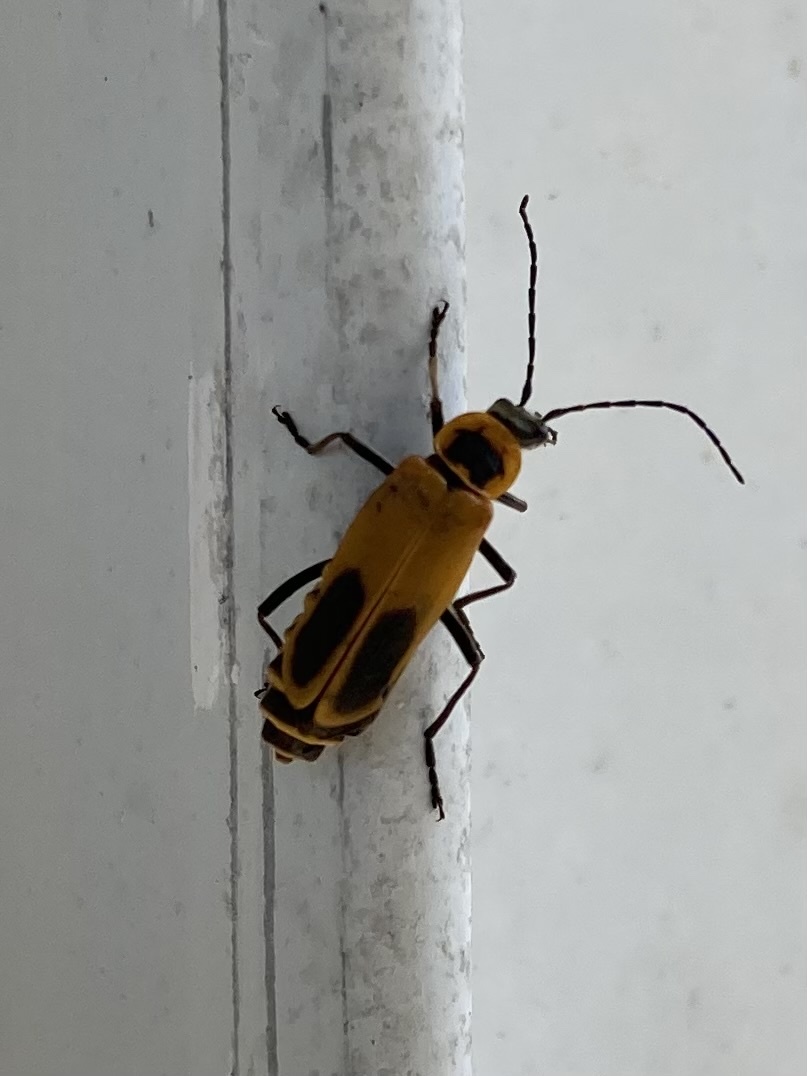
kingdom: Animalia
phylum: Arthropoda
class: Insecta
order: Coleoptera
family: Cantharidae
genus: Chauliognathus
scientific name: Chauliognathus pensylvanicus
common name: Goldenrod soldier beetle
